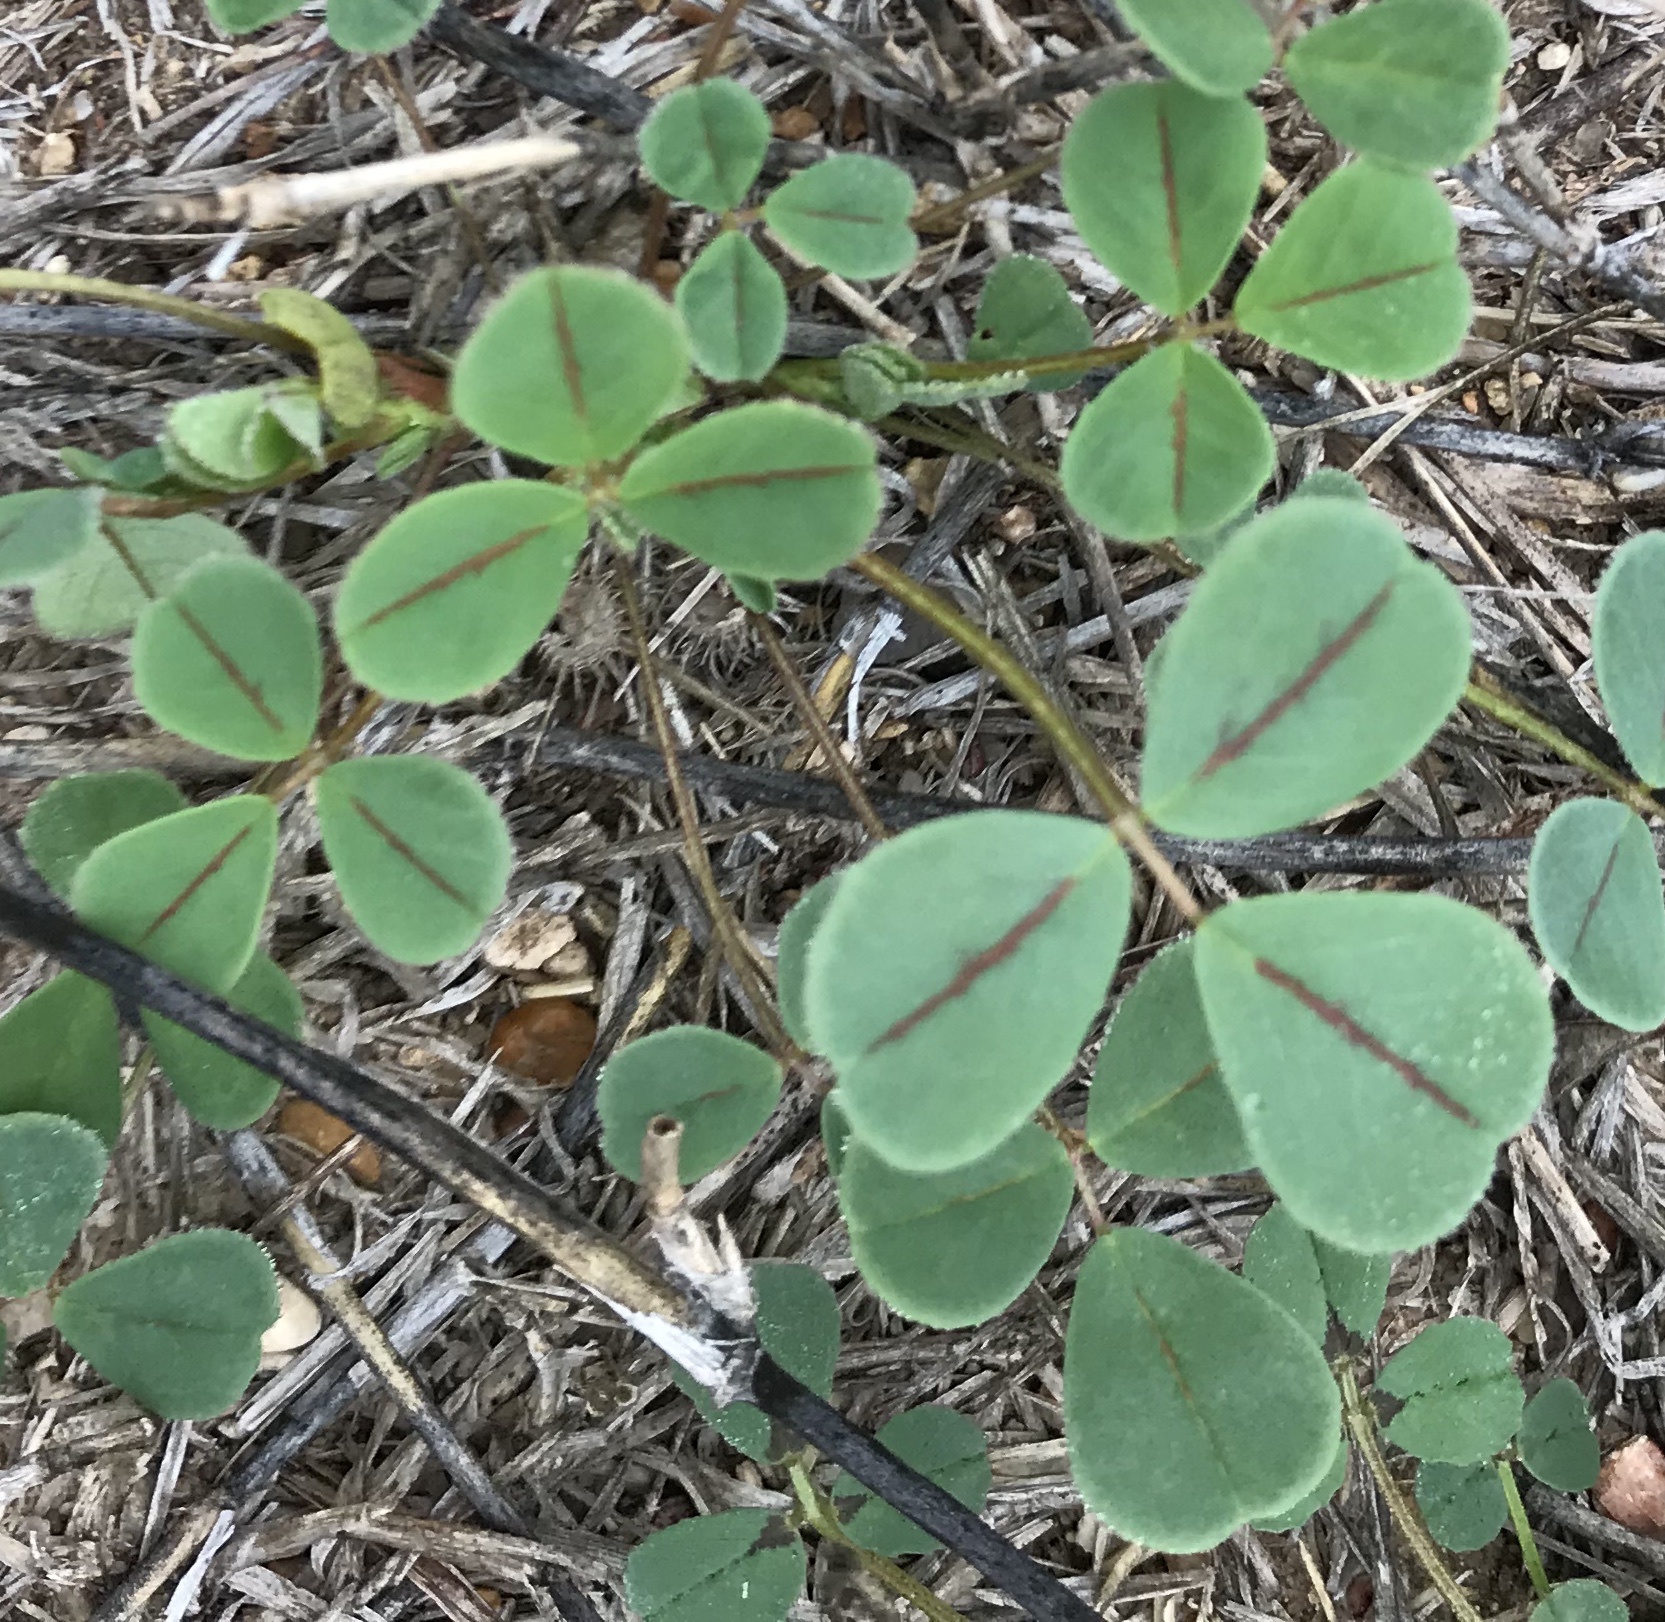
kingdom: Plantae
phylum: Tracheophyta
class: Magnoliopsida
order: Fabales
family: Fabaceae
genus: Melilotus
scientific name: Melilotus indicus
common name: Small melilot
